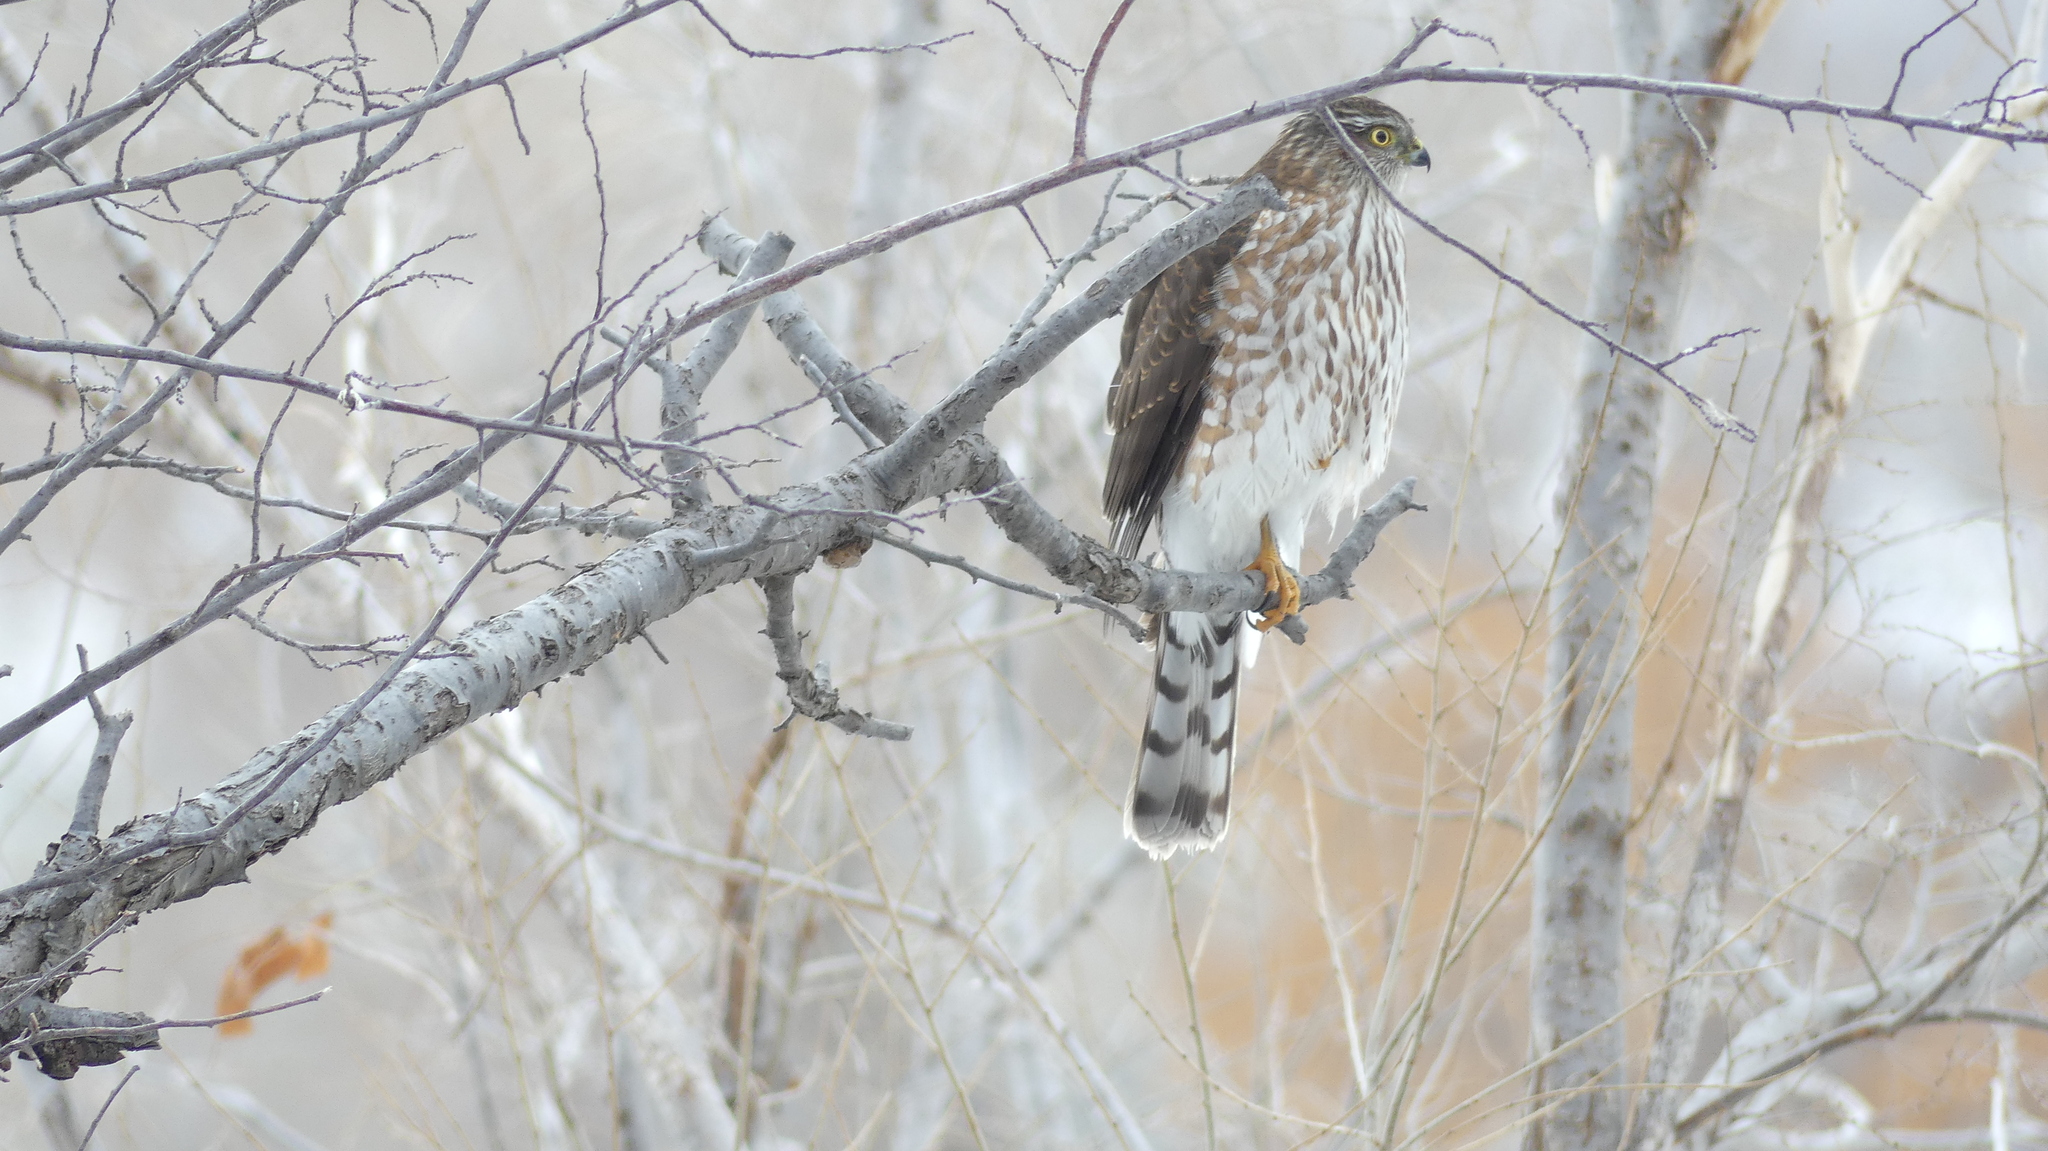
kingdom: Animalia
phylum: Chordata
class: Aves
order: Accipitriformes
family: Accipitridae
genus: Accipiter
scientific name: Accipiter striatus
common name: Sharp-shinned hawk
